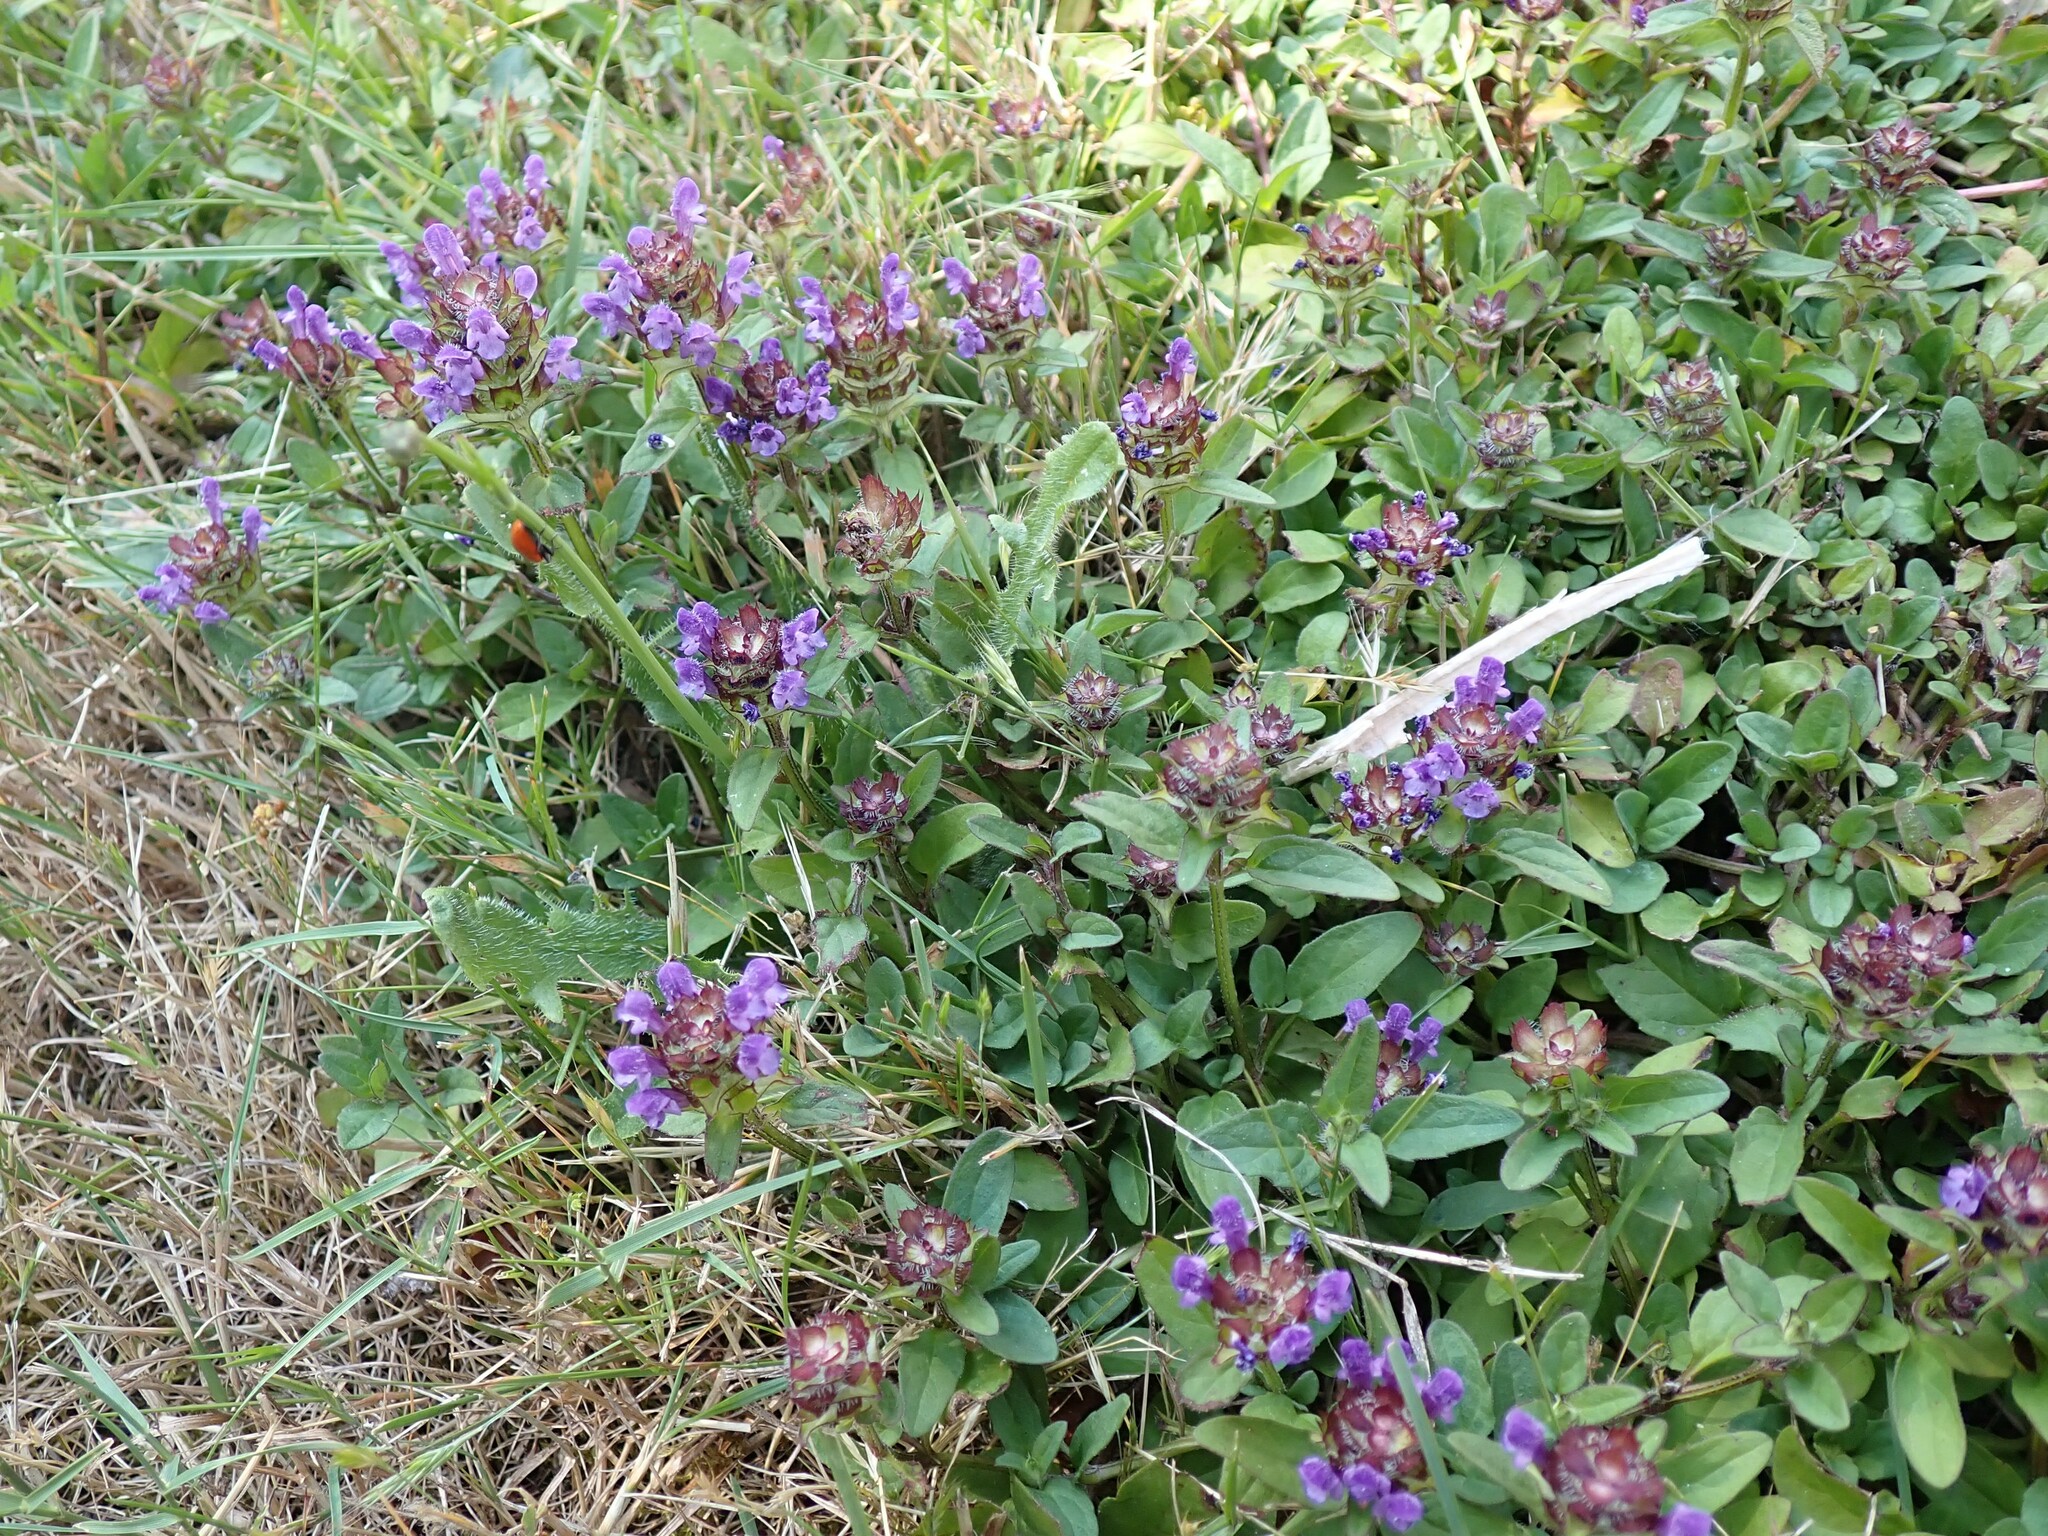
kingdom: Plantae
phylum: Tracheophyta
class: Magnoliopsida
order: Lamiales
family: Lamiaceae
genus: Prunella
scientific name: Prunella vulgaris
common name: Heal-all
